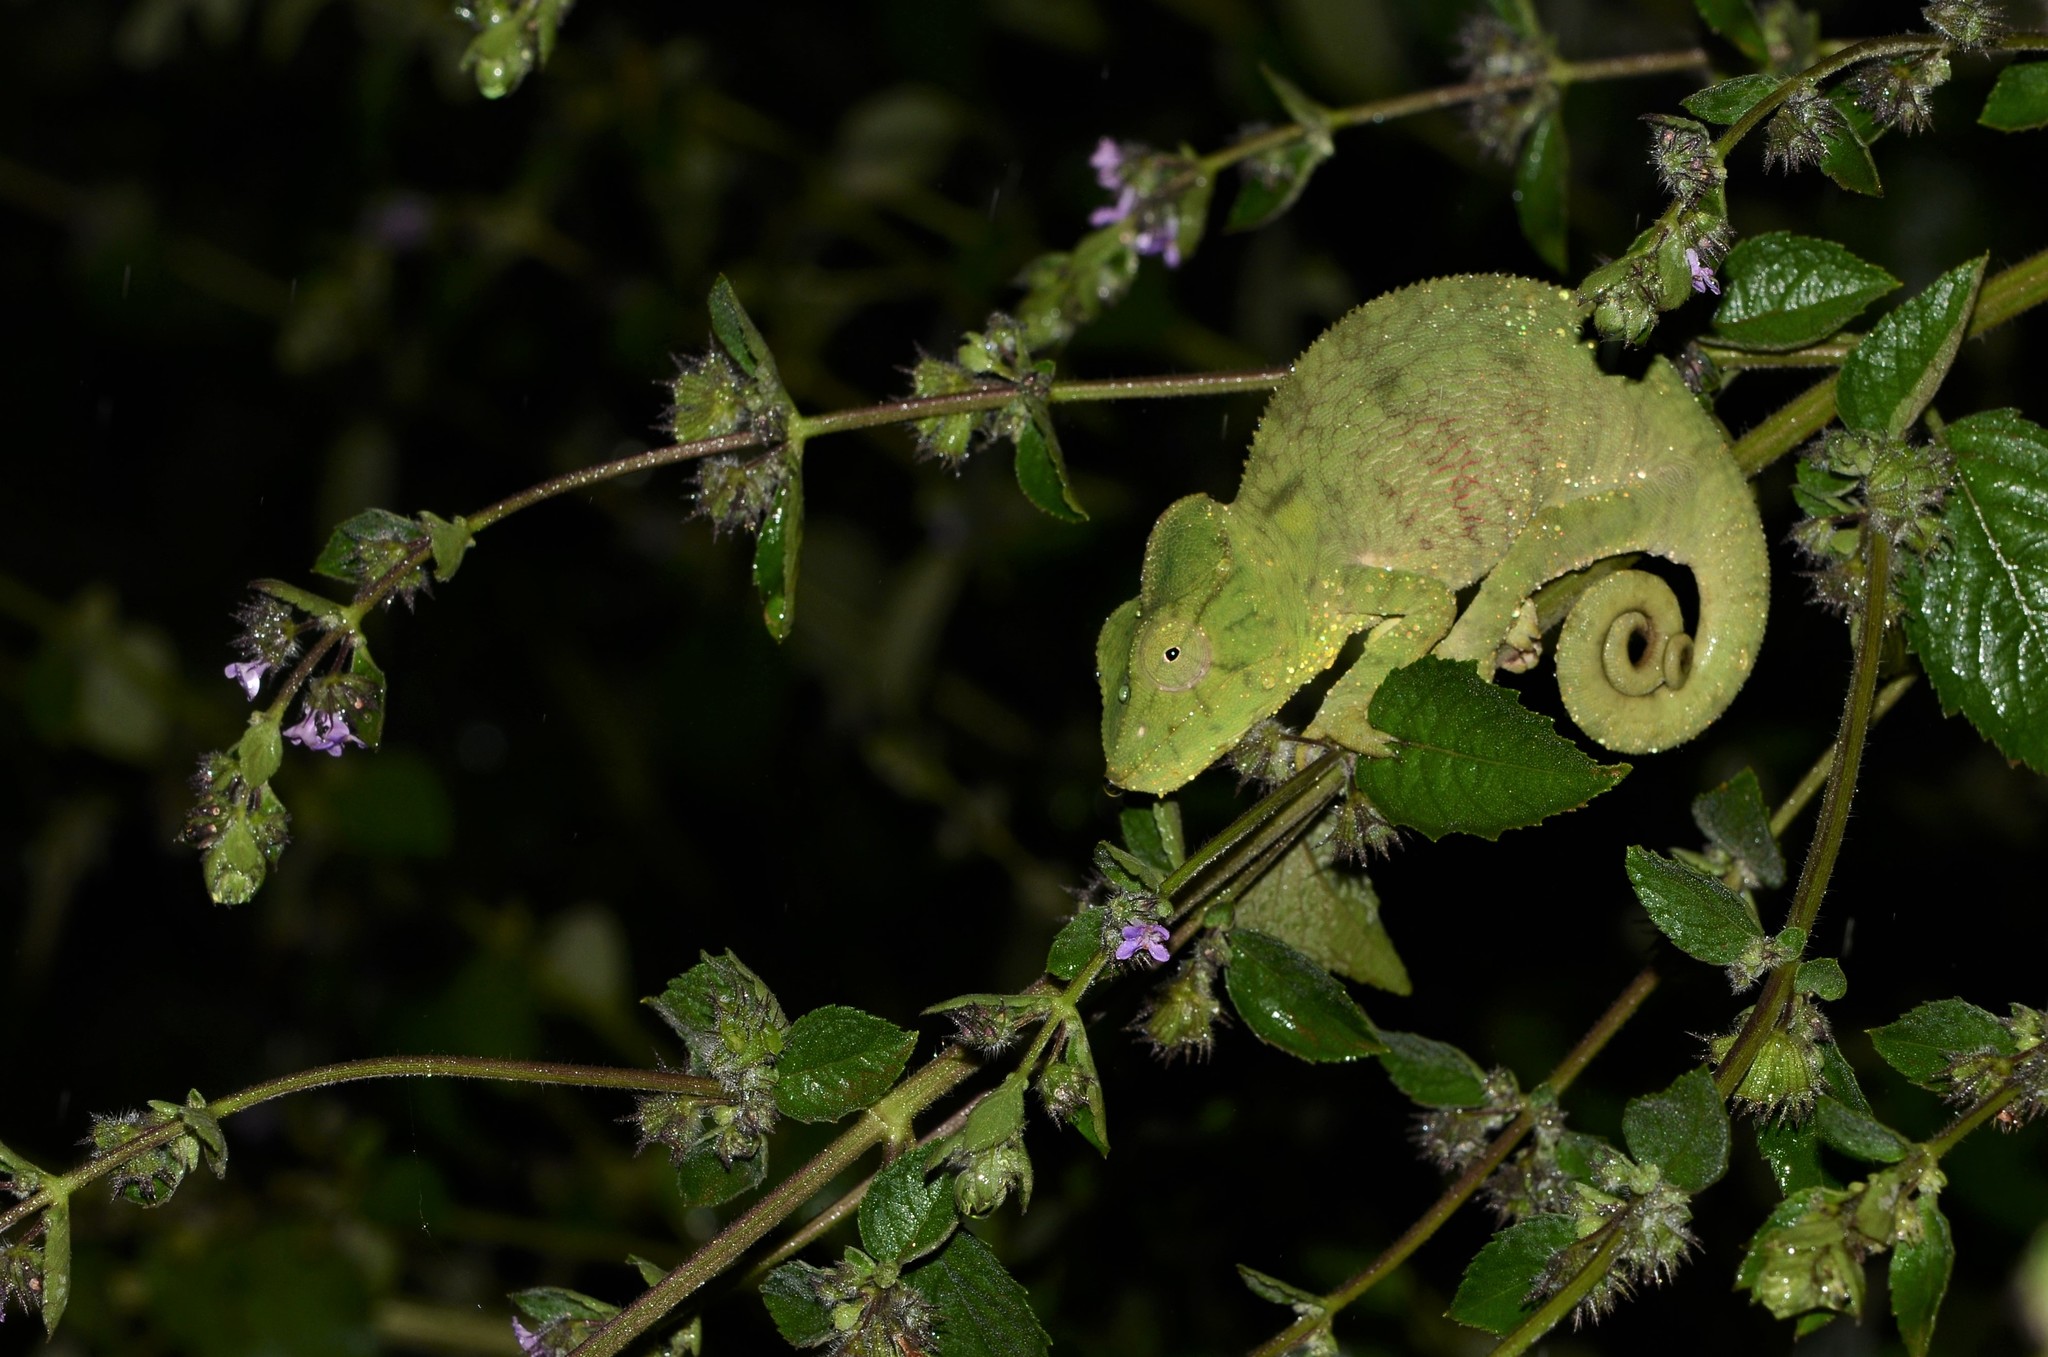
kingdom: Animalia
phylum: Chordata
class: Squamata
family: Chamaeleonidae
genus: Furcifer
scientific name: Furcifer oustaleti
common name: Oustalet's chameleon
